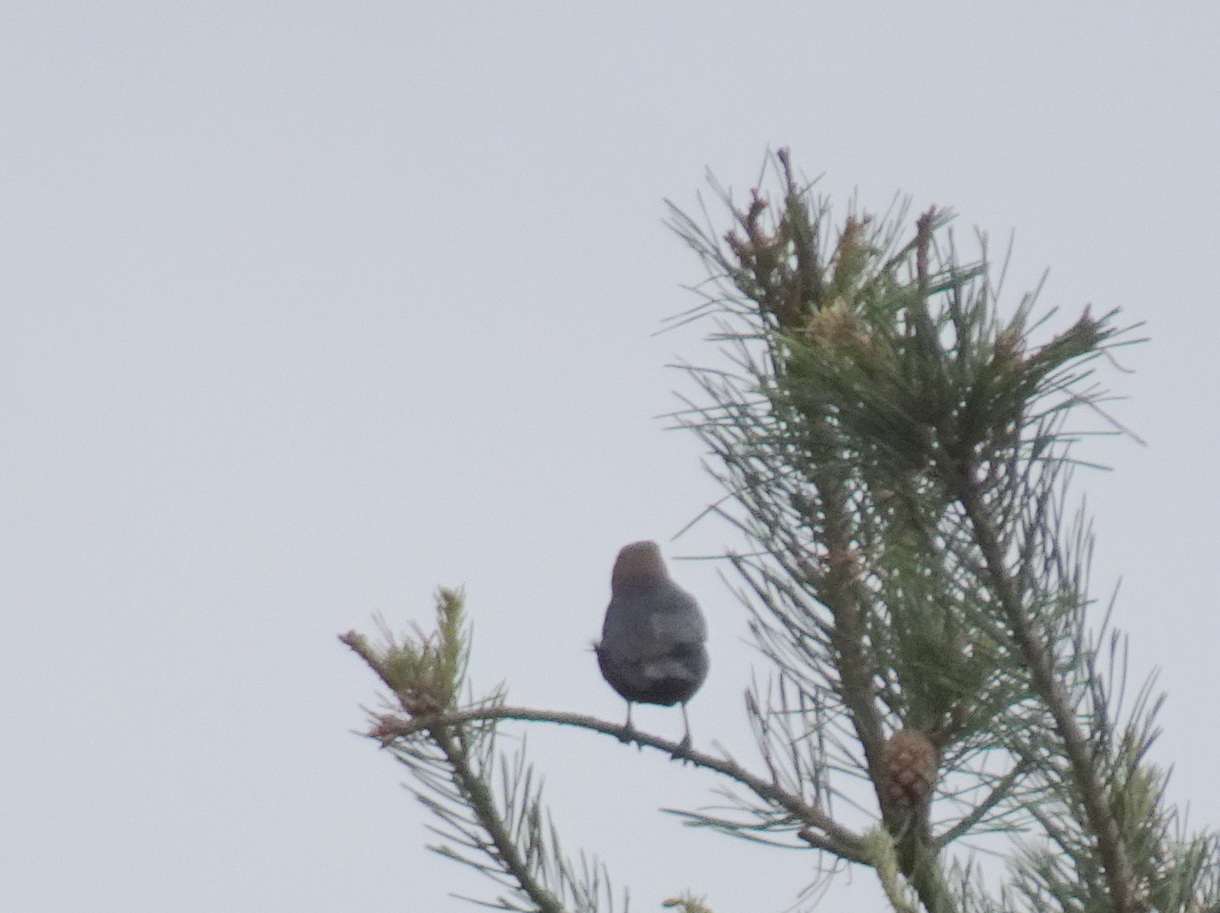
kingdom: Animalia
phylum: Chordata
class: Aves
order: Passeriformes
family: Icteridae
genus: Molothrus
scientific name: Molothrus ater
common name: Brown-headed cowbird
